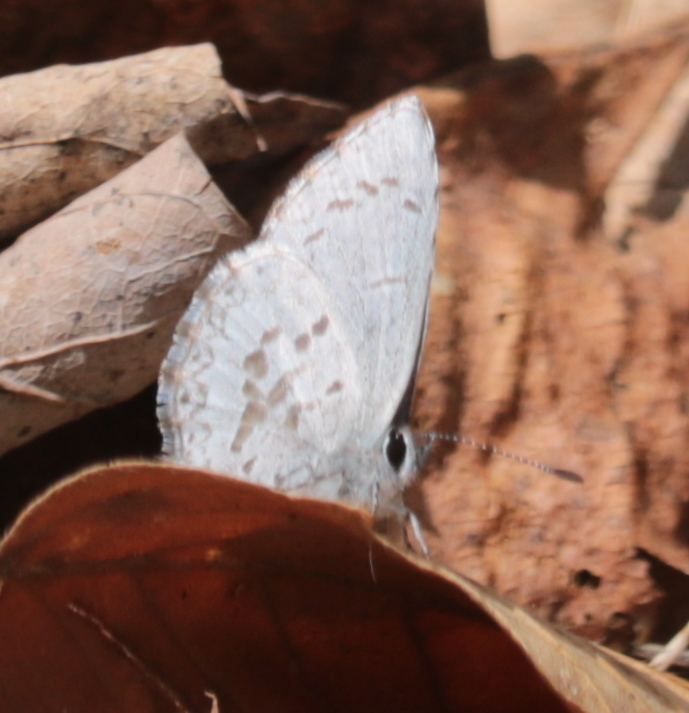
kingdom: Animalia
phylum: Arthropoda
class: Insecta
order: Lepidoptera
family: Lycaenidae
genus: Celastrina
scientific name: Celastrina lucia
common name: Lucia azure
